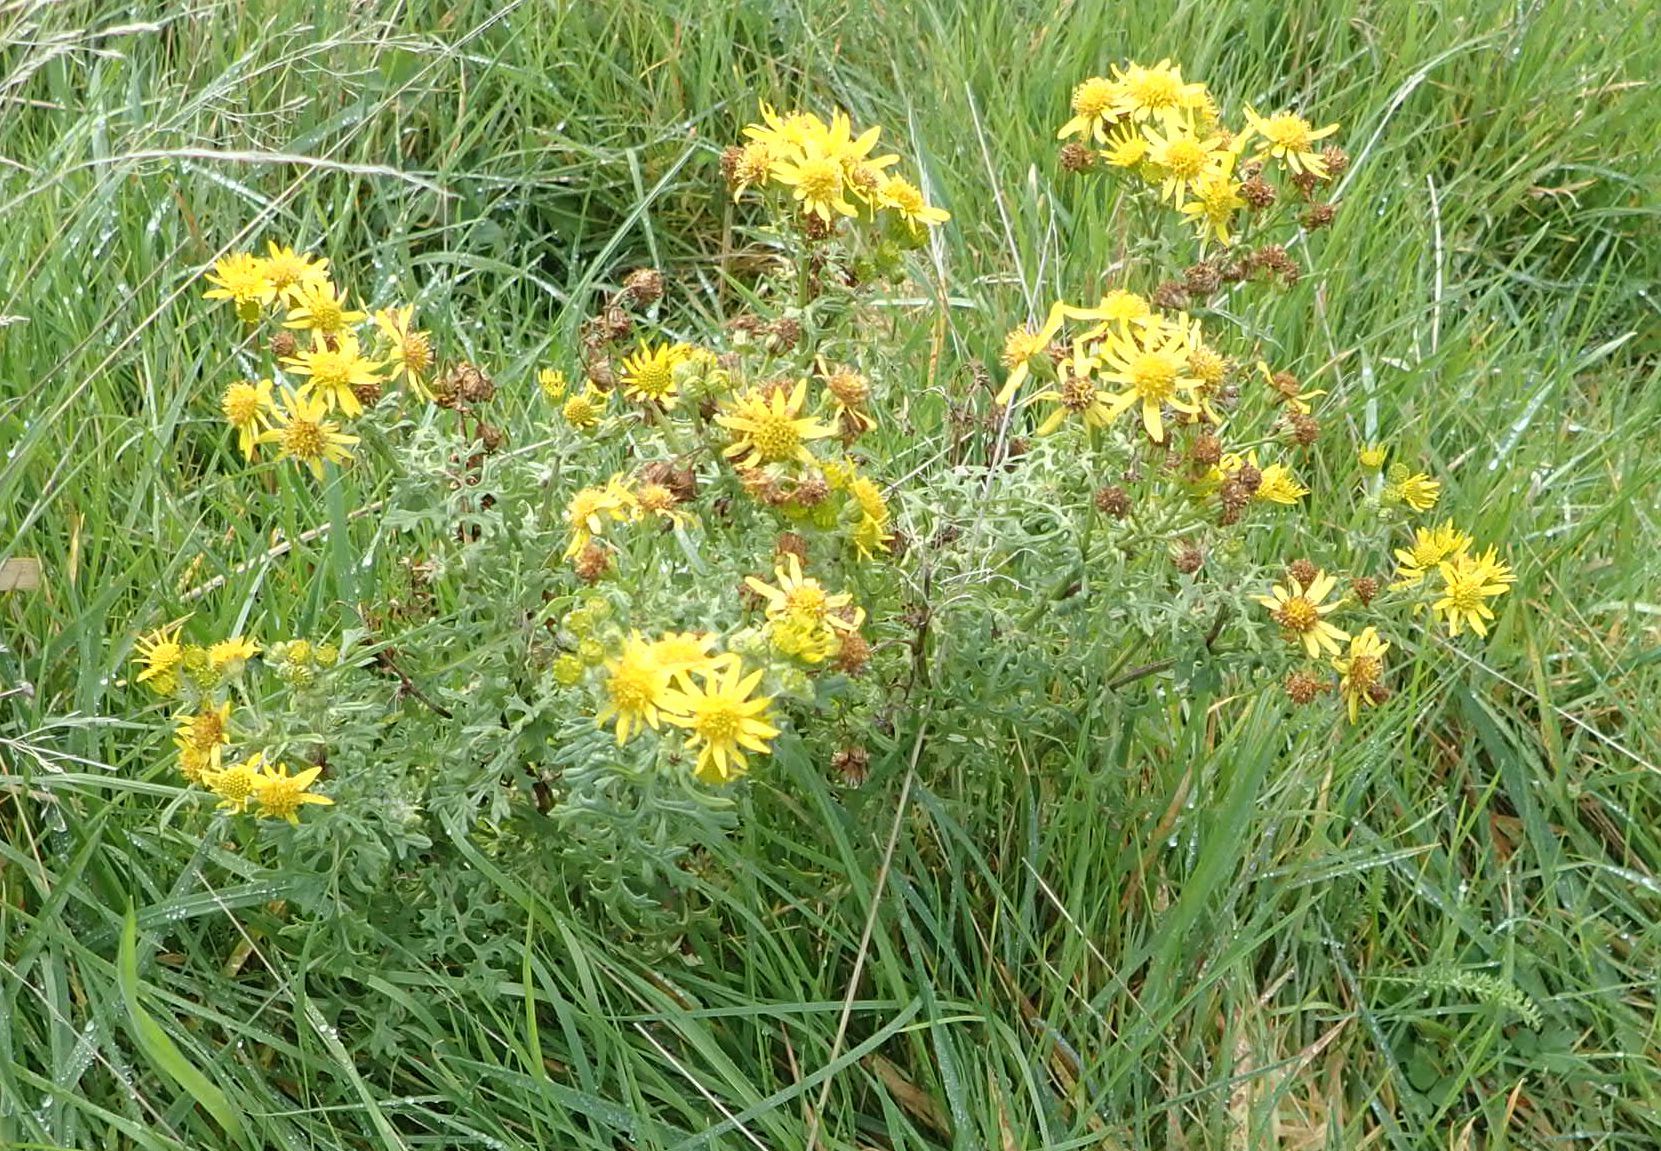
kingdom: Plantae
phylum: Tracheophyta
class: Magnoliopsida
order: Asterales
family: Asteraceae
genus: Jacobaea
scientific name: Jacobaea vulgaris
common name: Stinking willie
